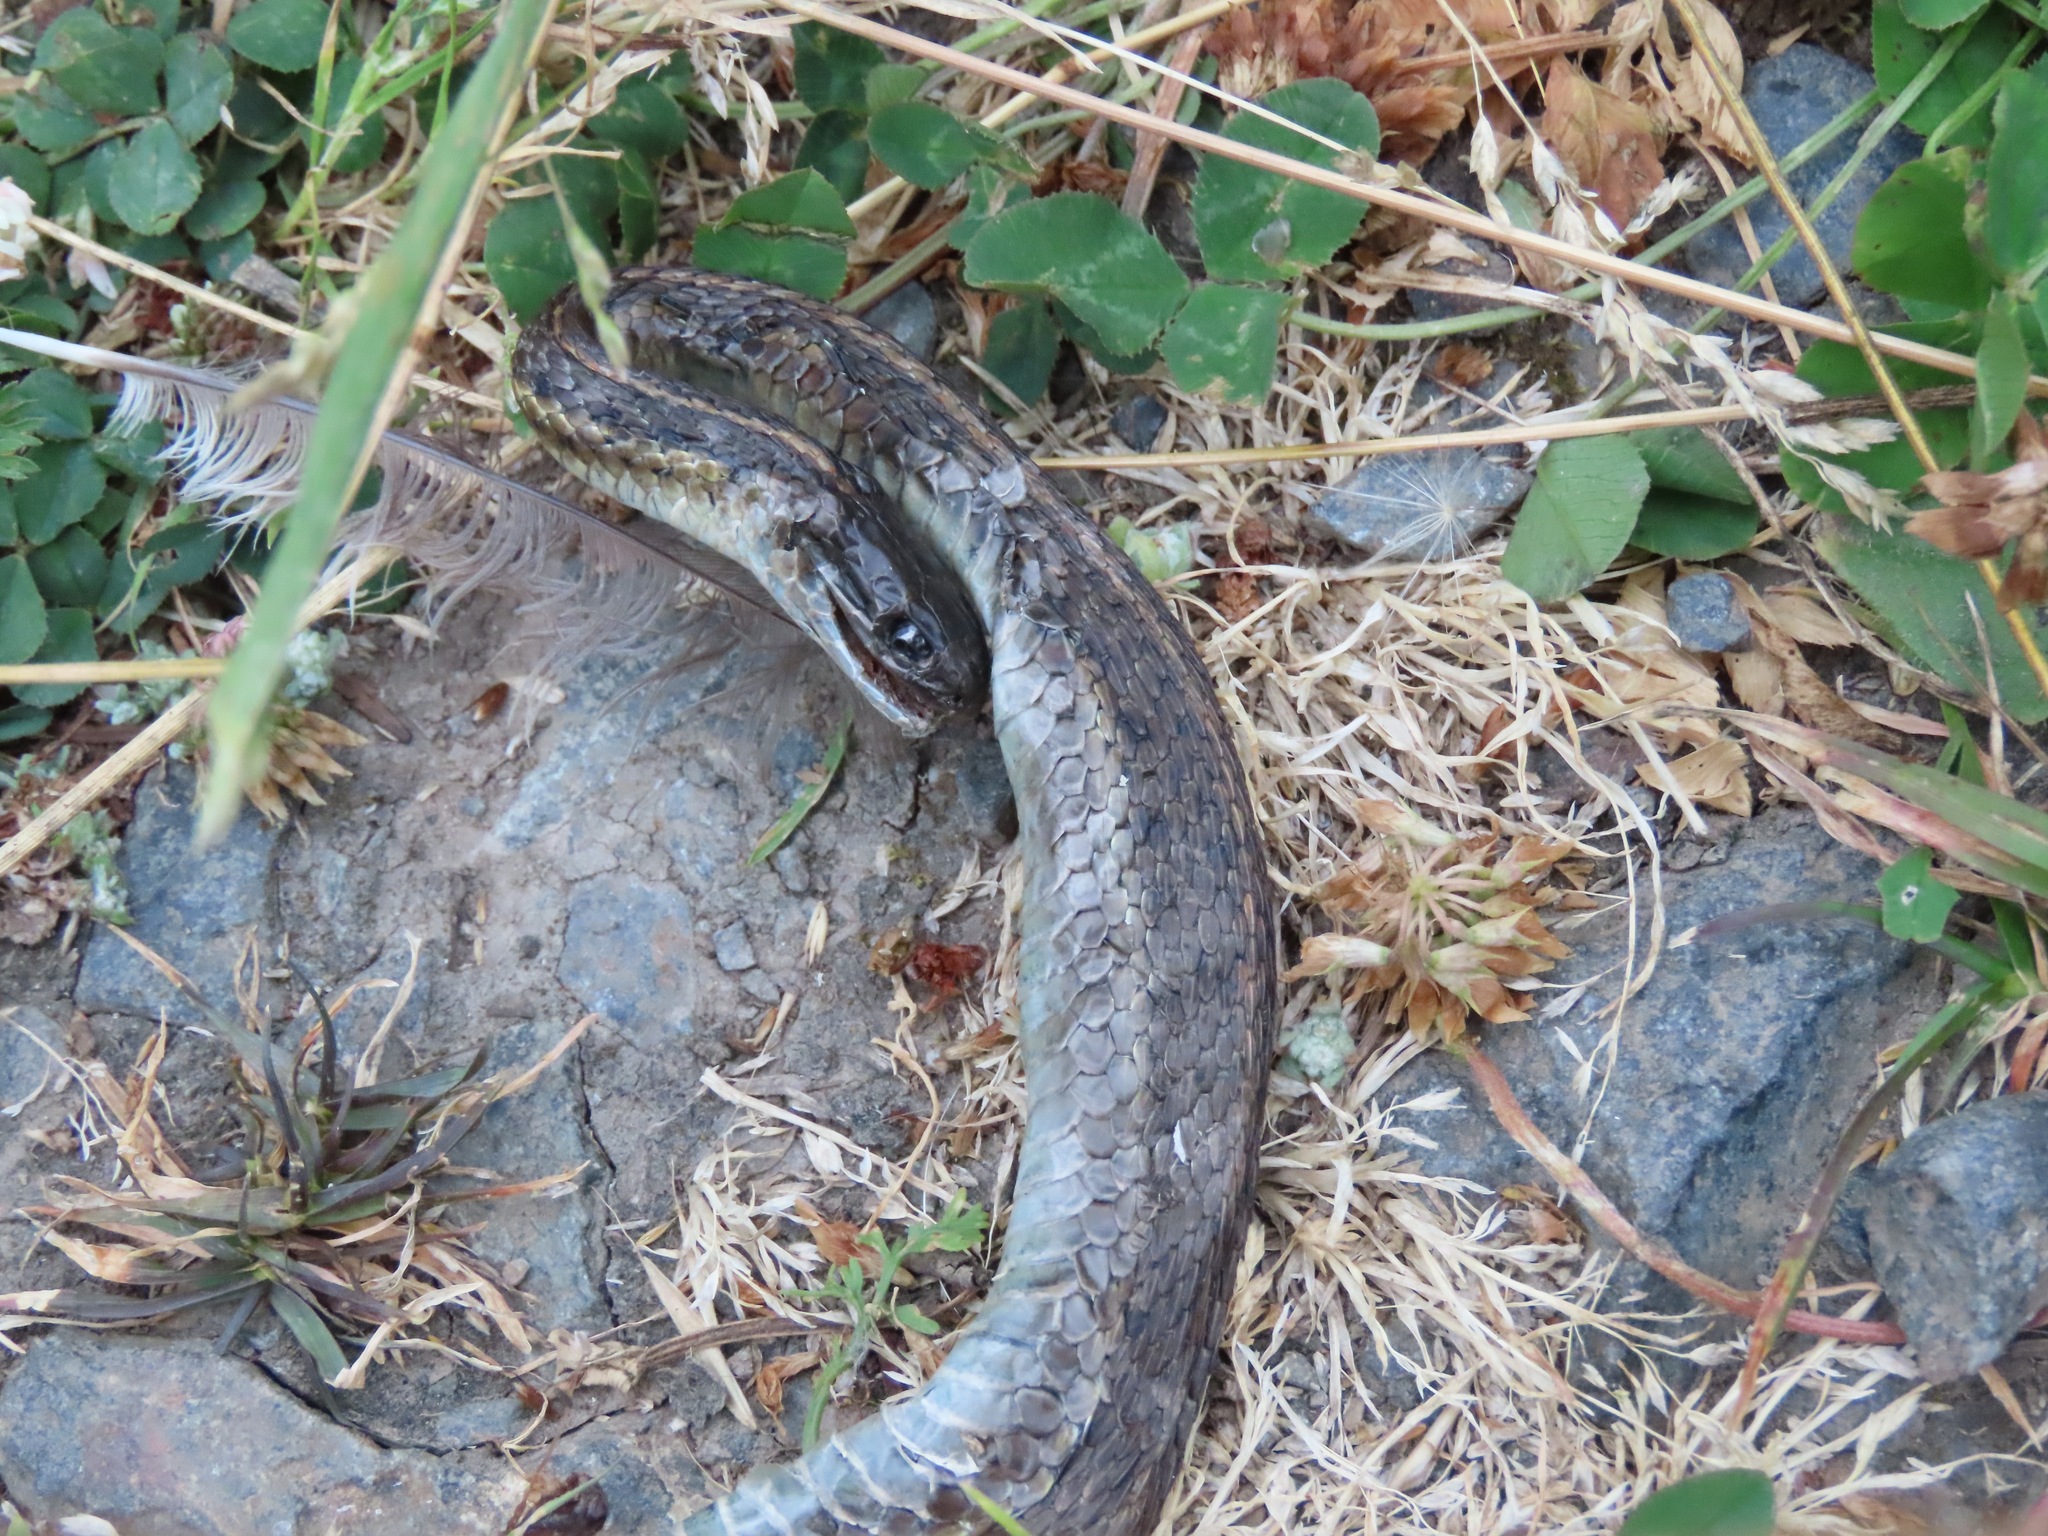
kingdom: Animalia
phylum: Chordata
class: Squamata
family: Colubridae
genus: Thamnophis
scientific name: Thamnophis ordinoides
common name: Northwestern garter snake
